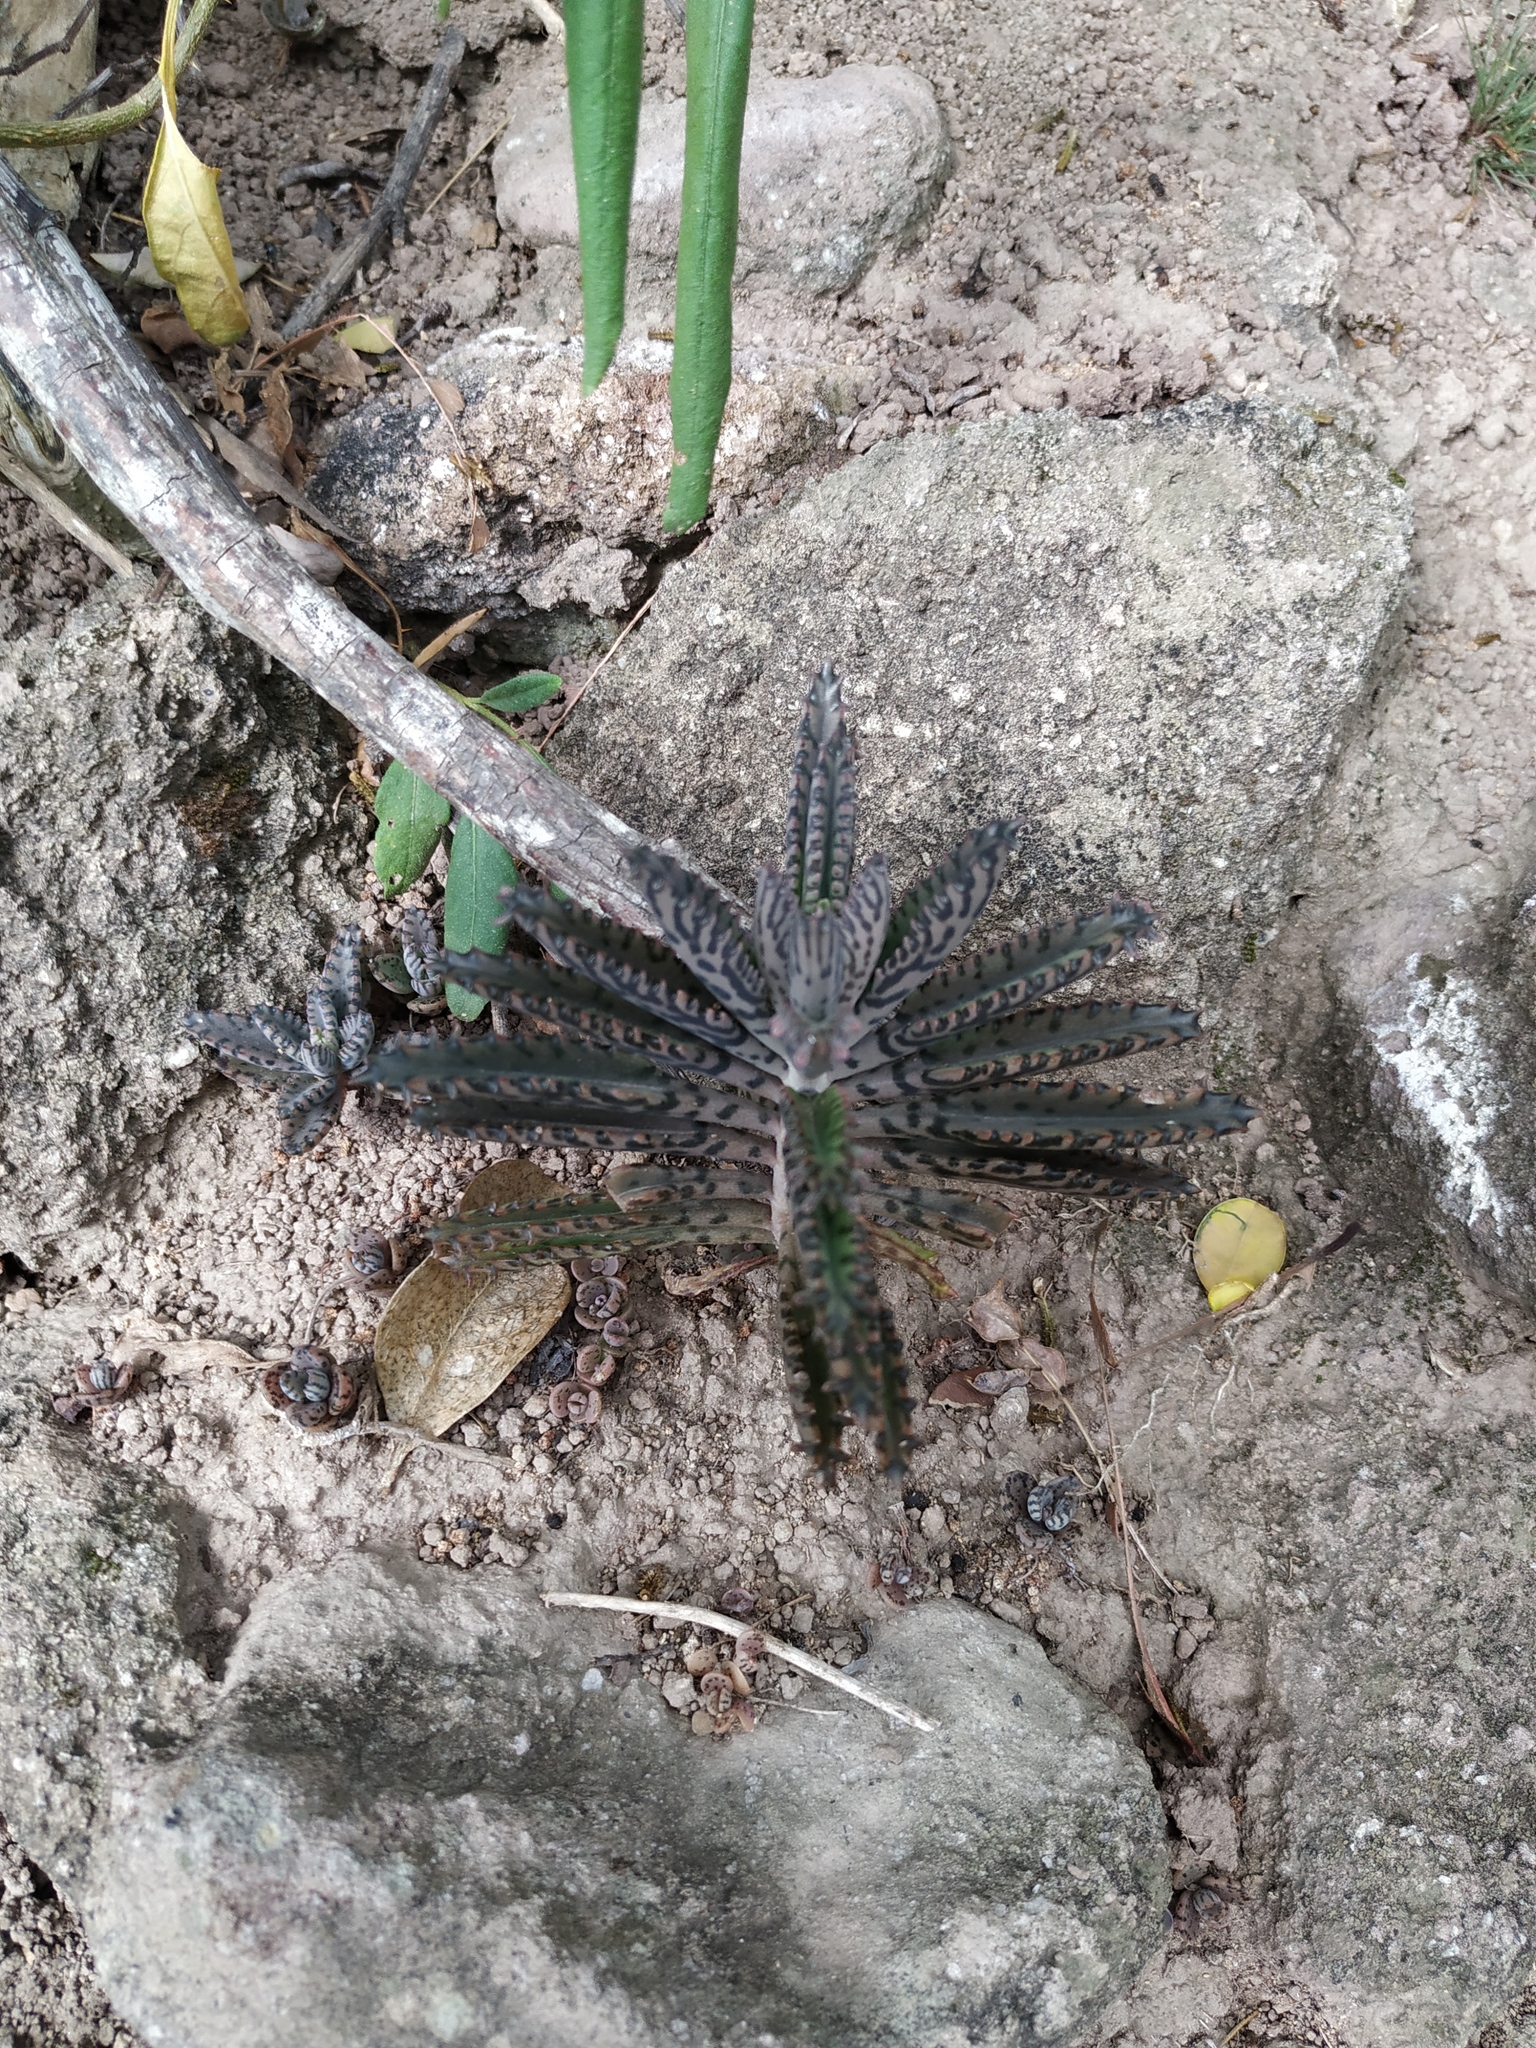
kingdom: Plantae
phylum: Tracheophyta
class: Magnoliopsida
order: Saxifragales
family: Crassulaceae
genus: Kalanchoe
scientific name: Kalanchoe houghtonii
